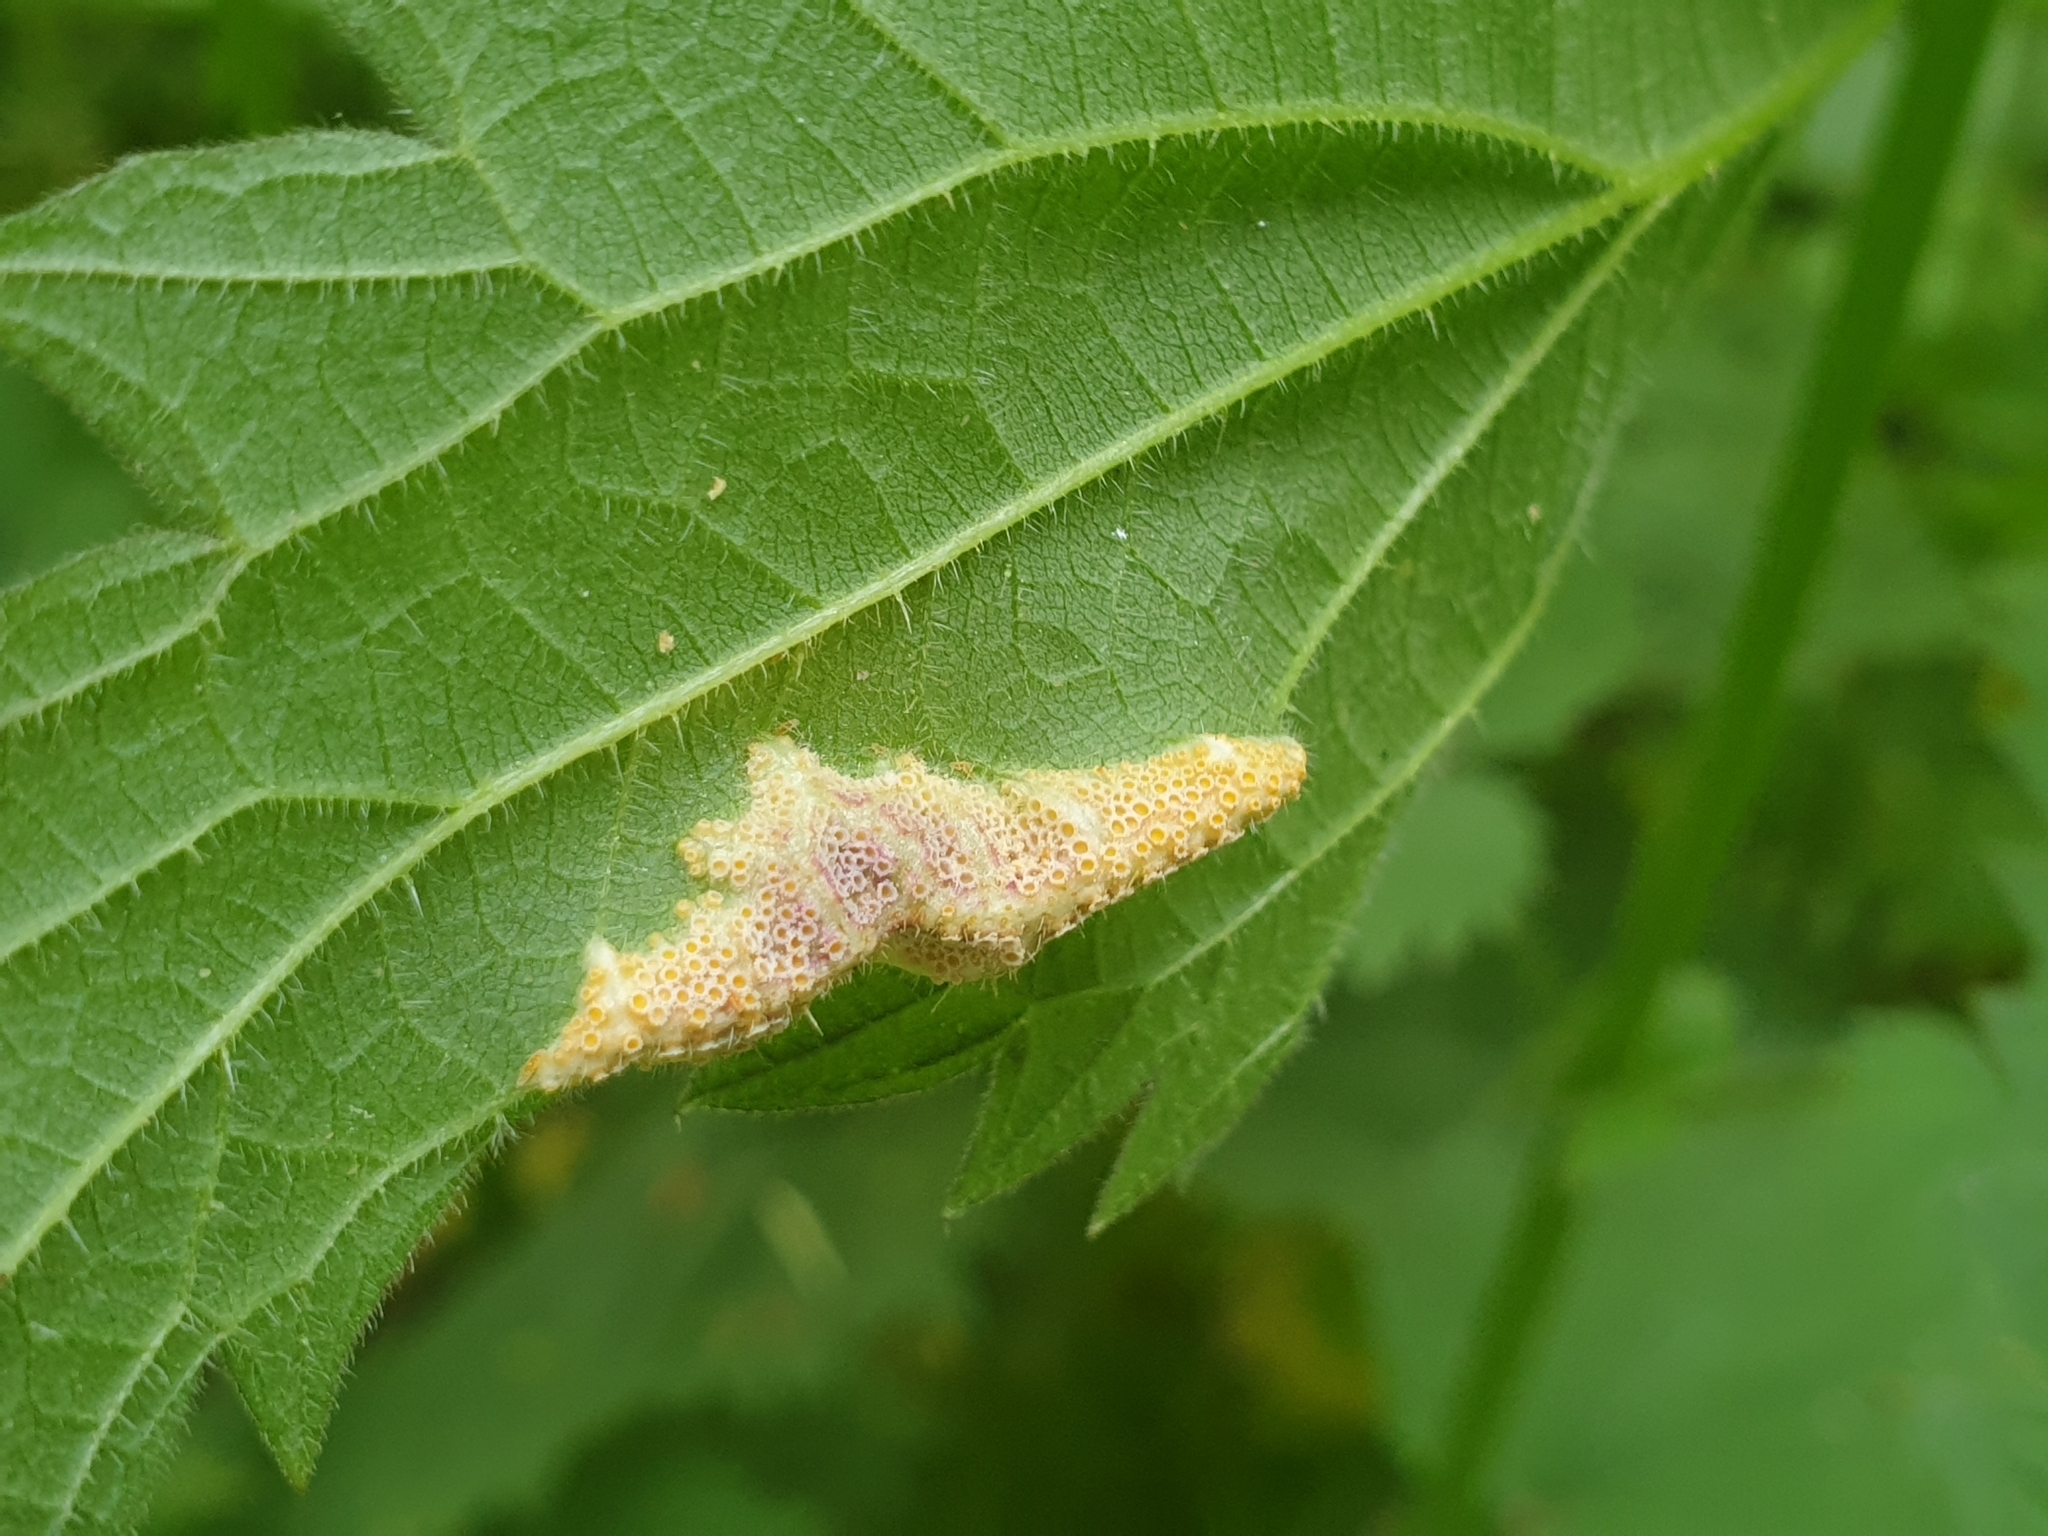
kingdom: Fungi
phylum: Basidiomycota
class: Pucciniomycetes
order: Pucciniales
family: Pucciniaceae
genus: Puccinia
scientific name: Puccinia urticata
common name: Nettle clustercup rust fungus
